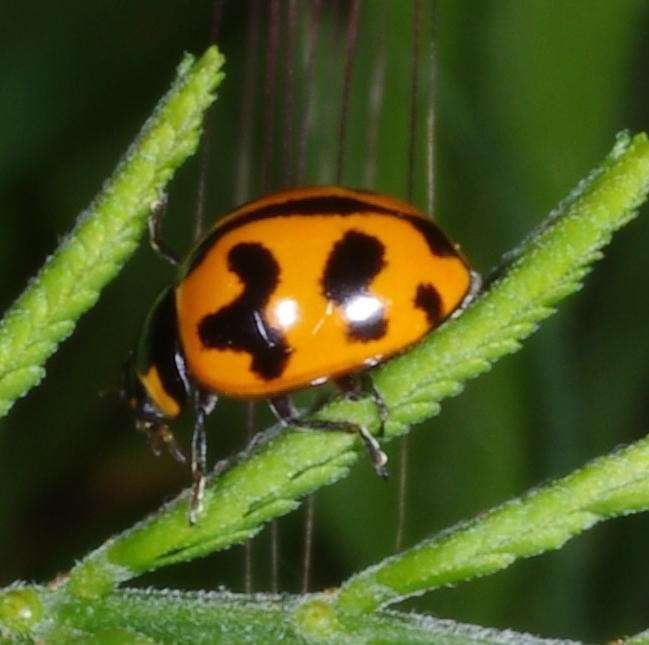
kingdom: Animalia
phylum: Arthropoda
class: Insecta
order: Coleoptera
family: Coccinellidae
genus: Coccinella
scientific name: Coccinella transversalis
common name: Transverse lady beetle
